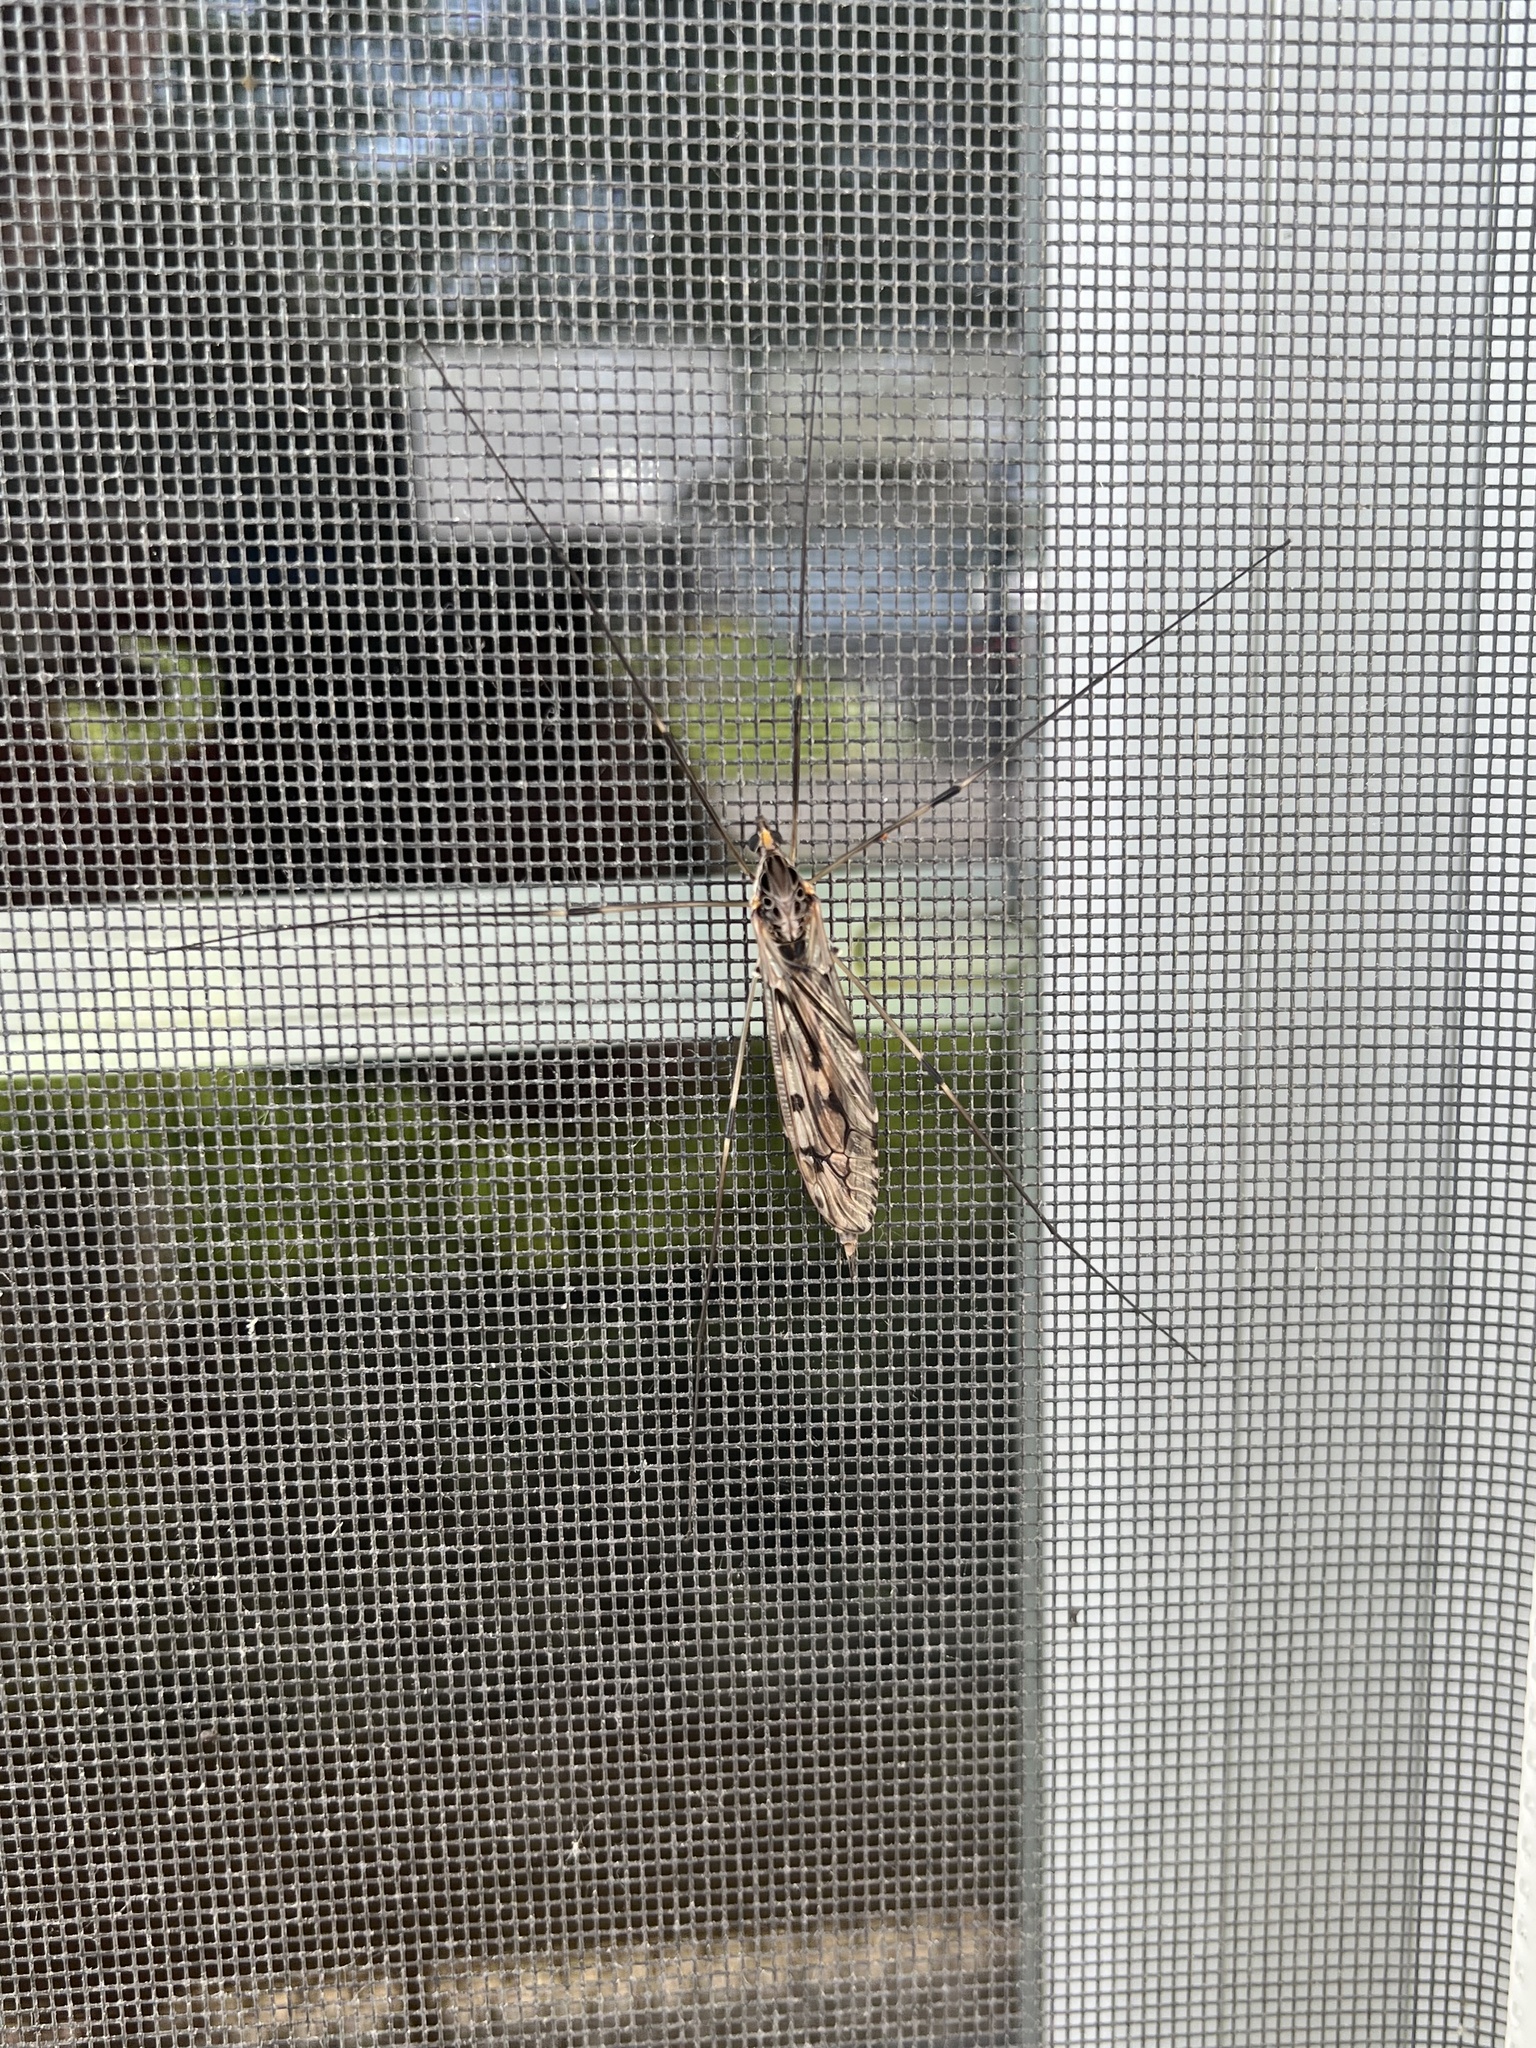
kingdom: Animalia
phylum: Arthropoda
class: Insecta
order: Diptera
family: Tipulidae
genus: Tipula
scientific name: Tipula abdominalis
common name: Giant crane fly
